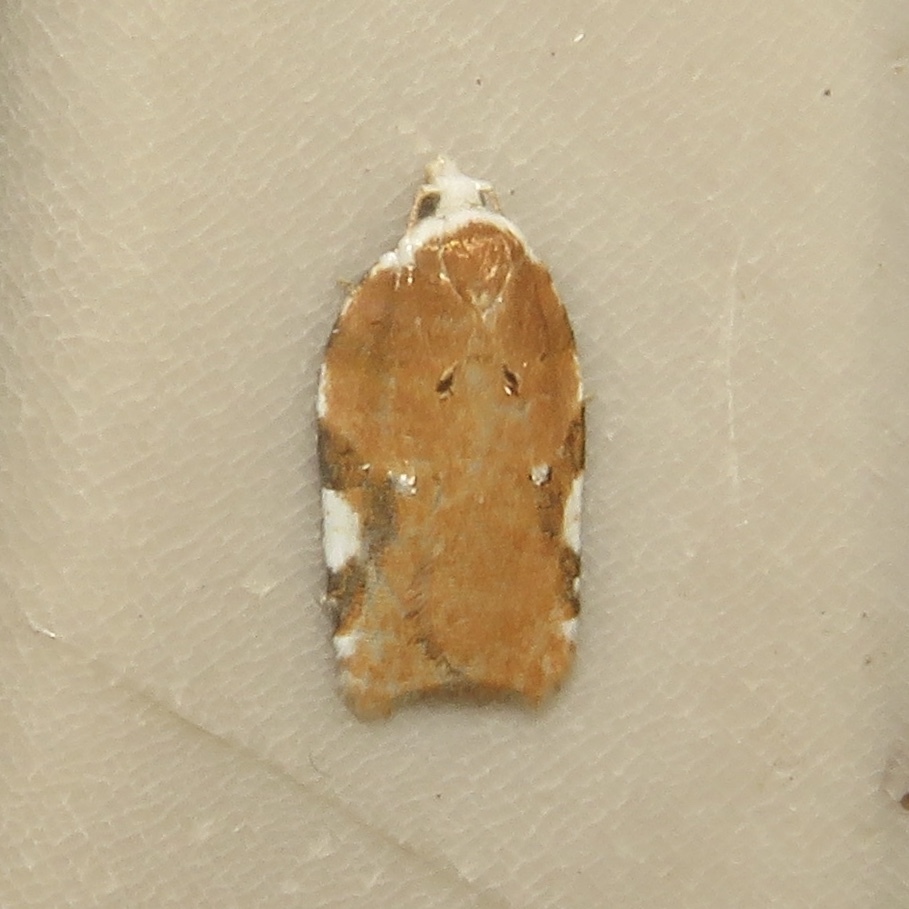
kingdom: Animalia
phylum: Arthropoda
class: Insecta
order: Lepidoptera
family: Tortricidae
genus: Acleris
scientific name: Acleris cervinana
